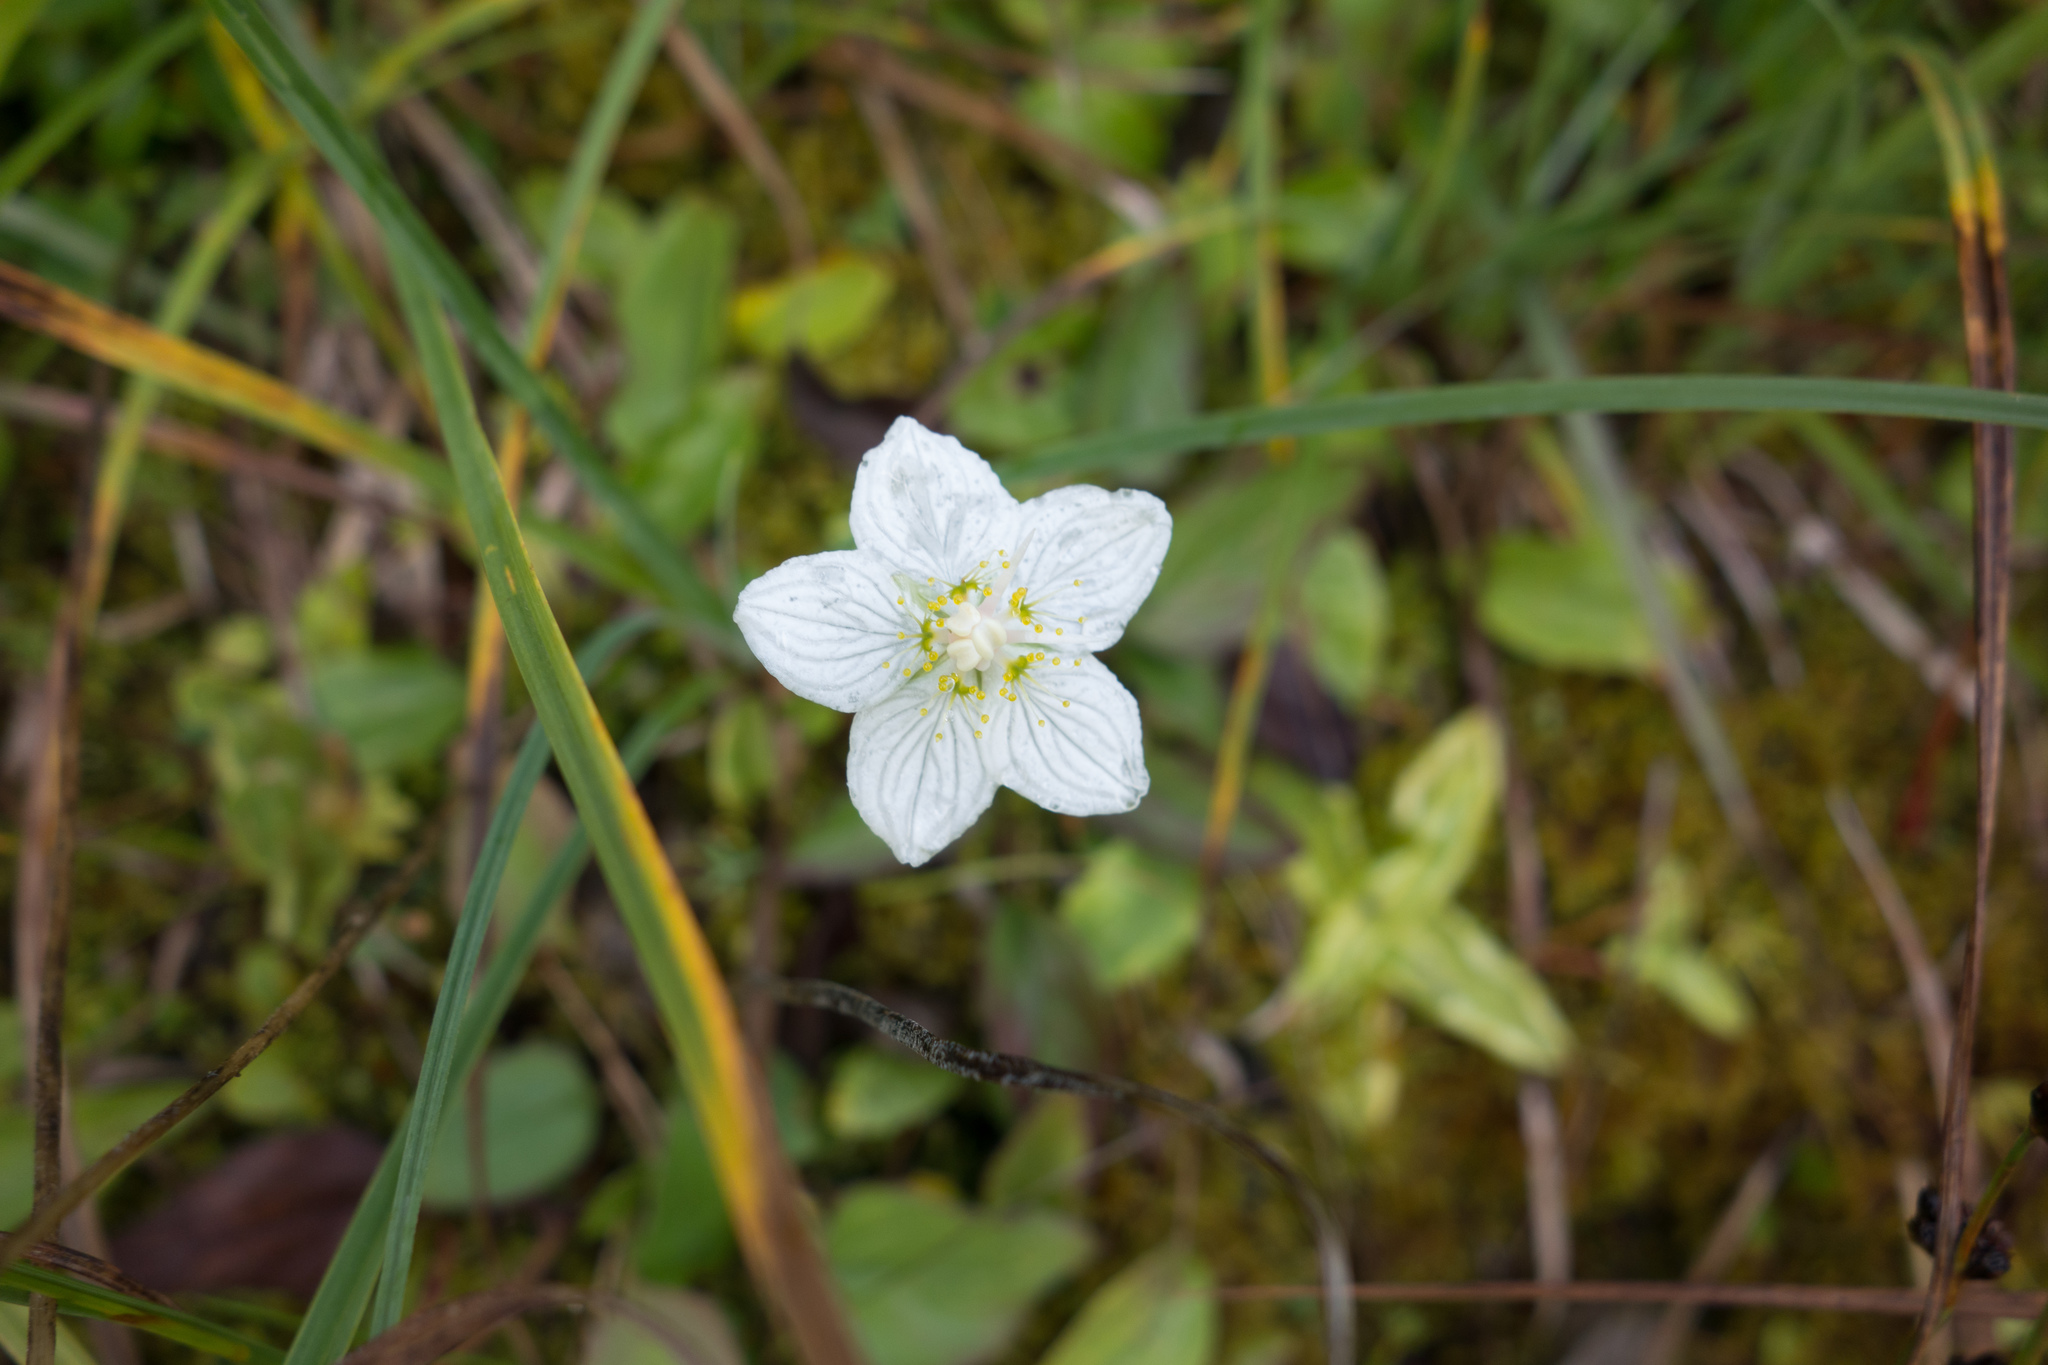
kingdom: Plantae
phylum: Tracheophyta
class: Magnoliopsida
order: Celastrales
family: Parnassiaceae
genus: Parnassia
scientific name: Parnassia palustris
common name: Grass-of-parnassus
